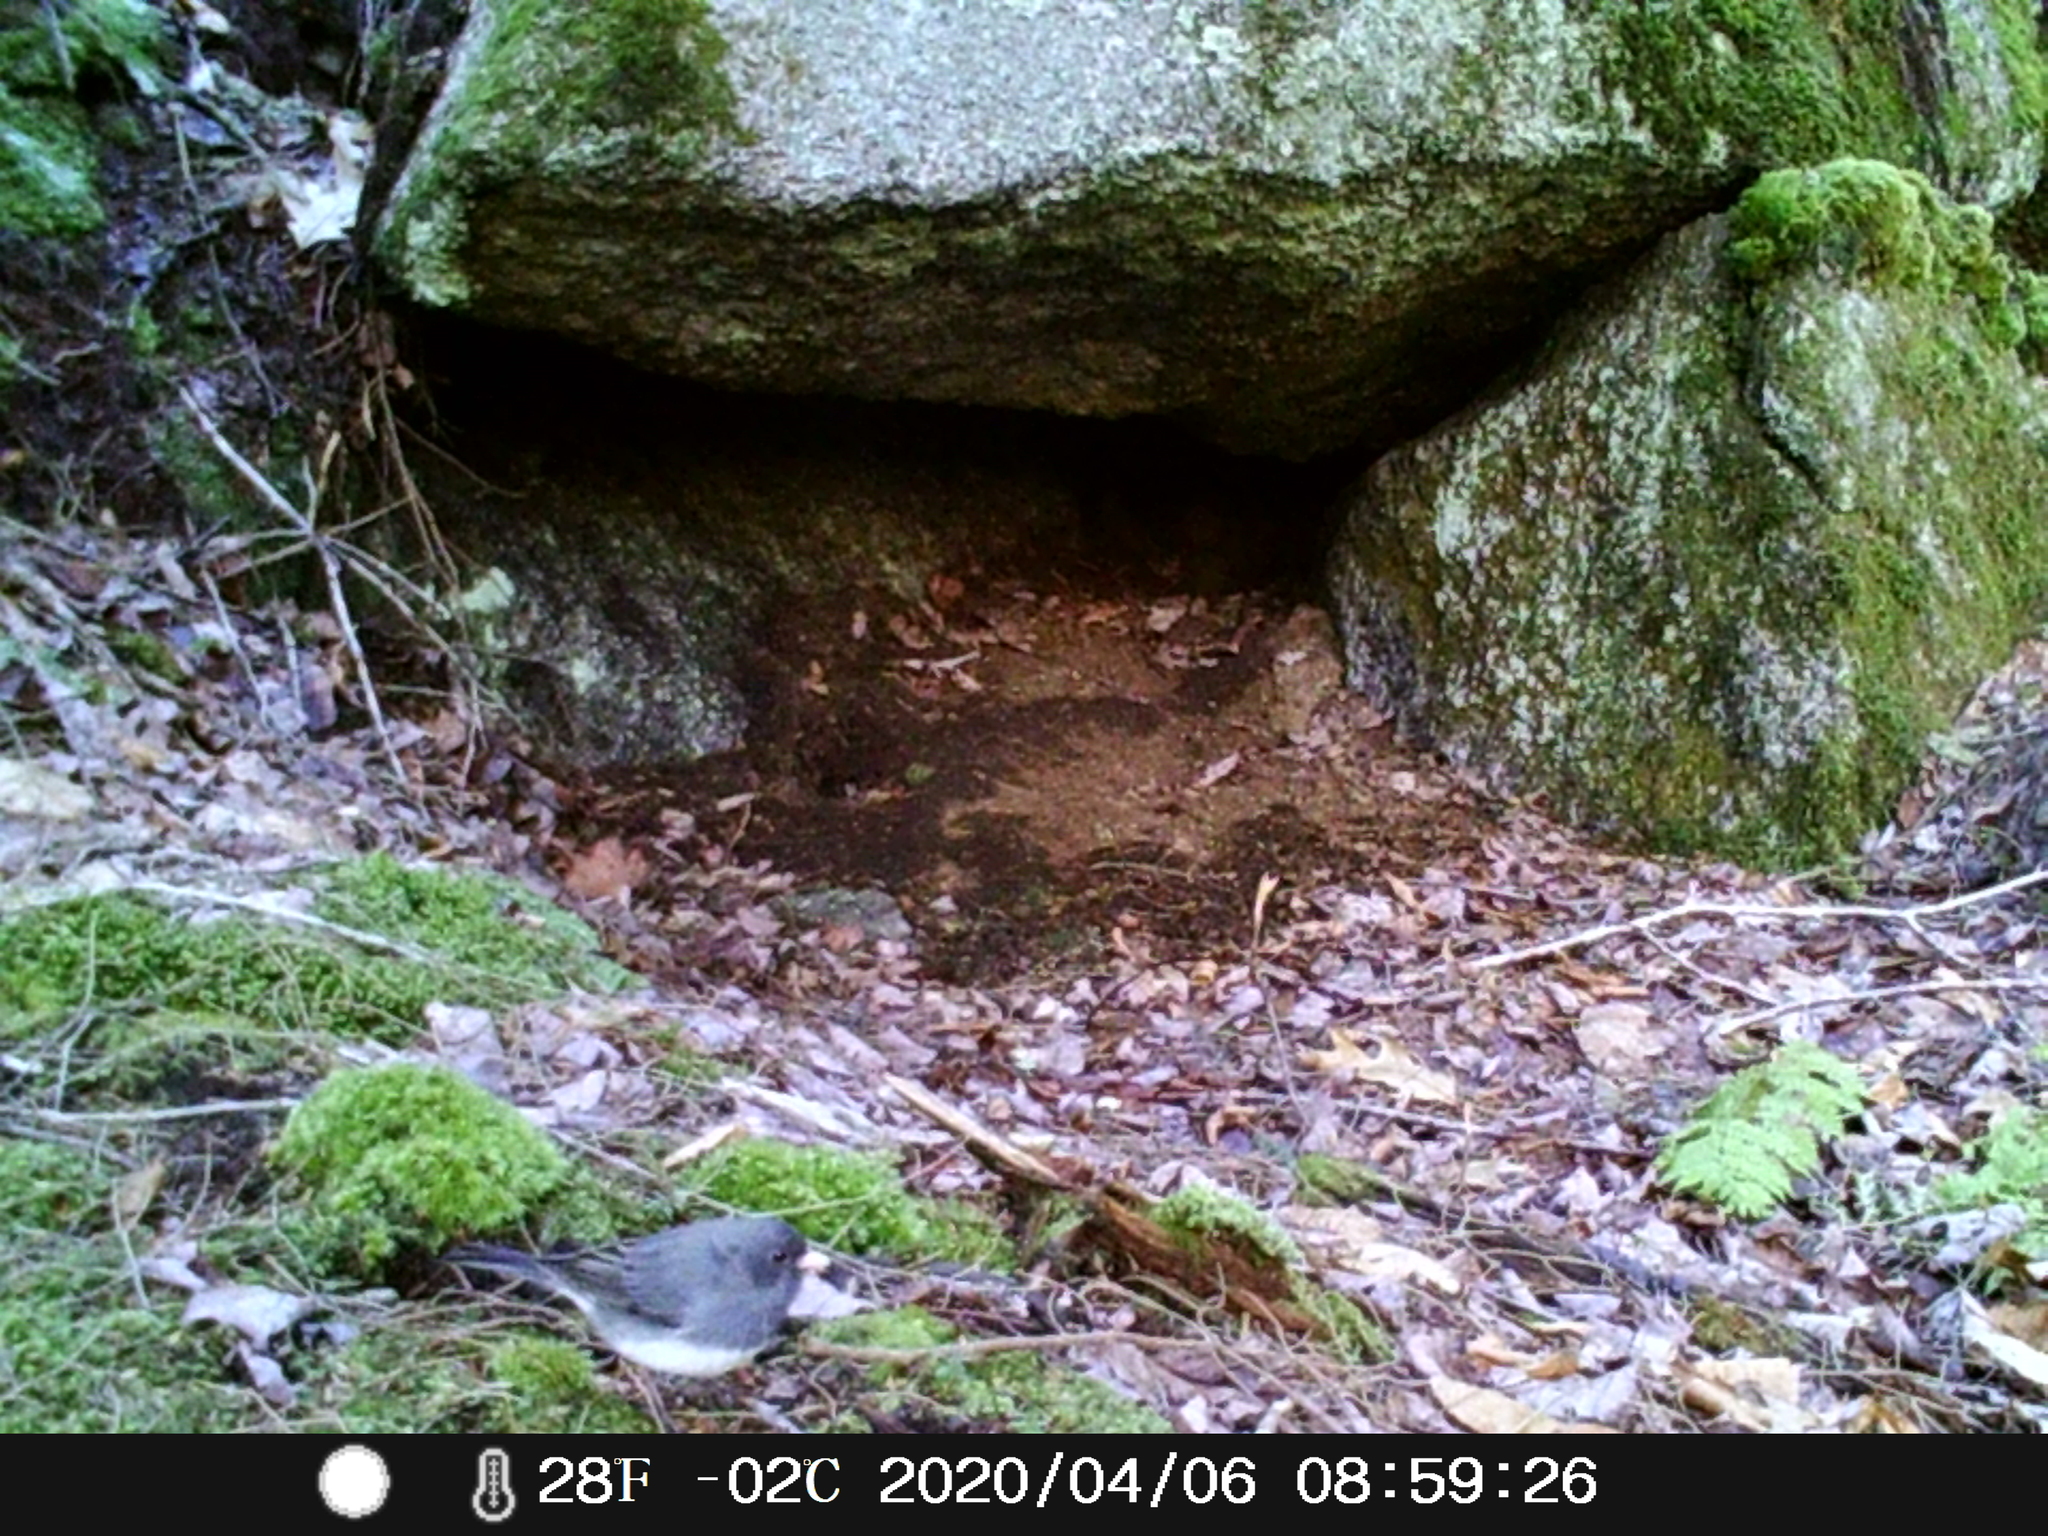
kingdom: Animalia
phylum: Chordata
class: Aves
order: Passeriformes
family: Passerellidae
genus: Junco
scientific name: Junco hyemalis
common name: Dark-eyed junco
